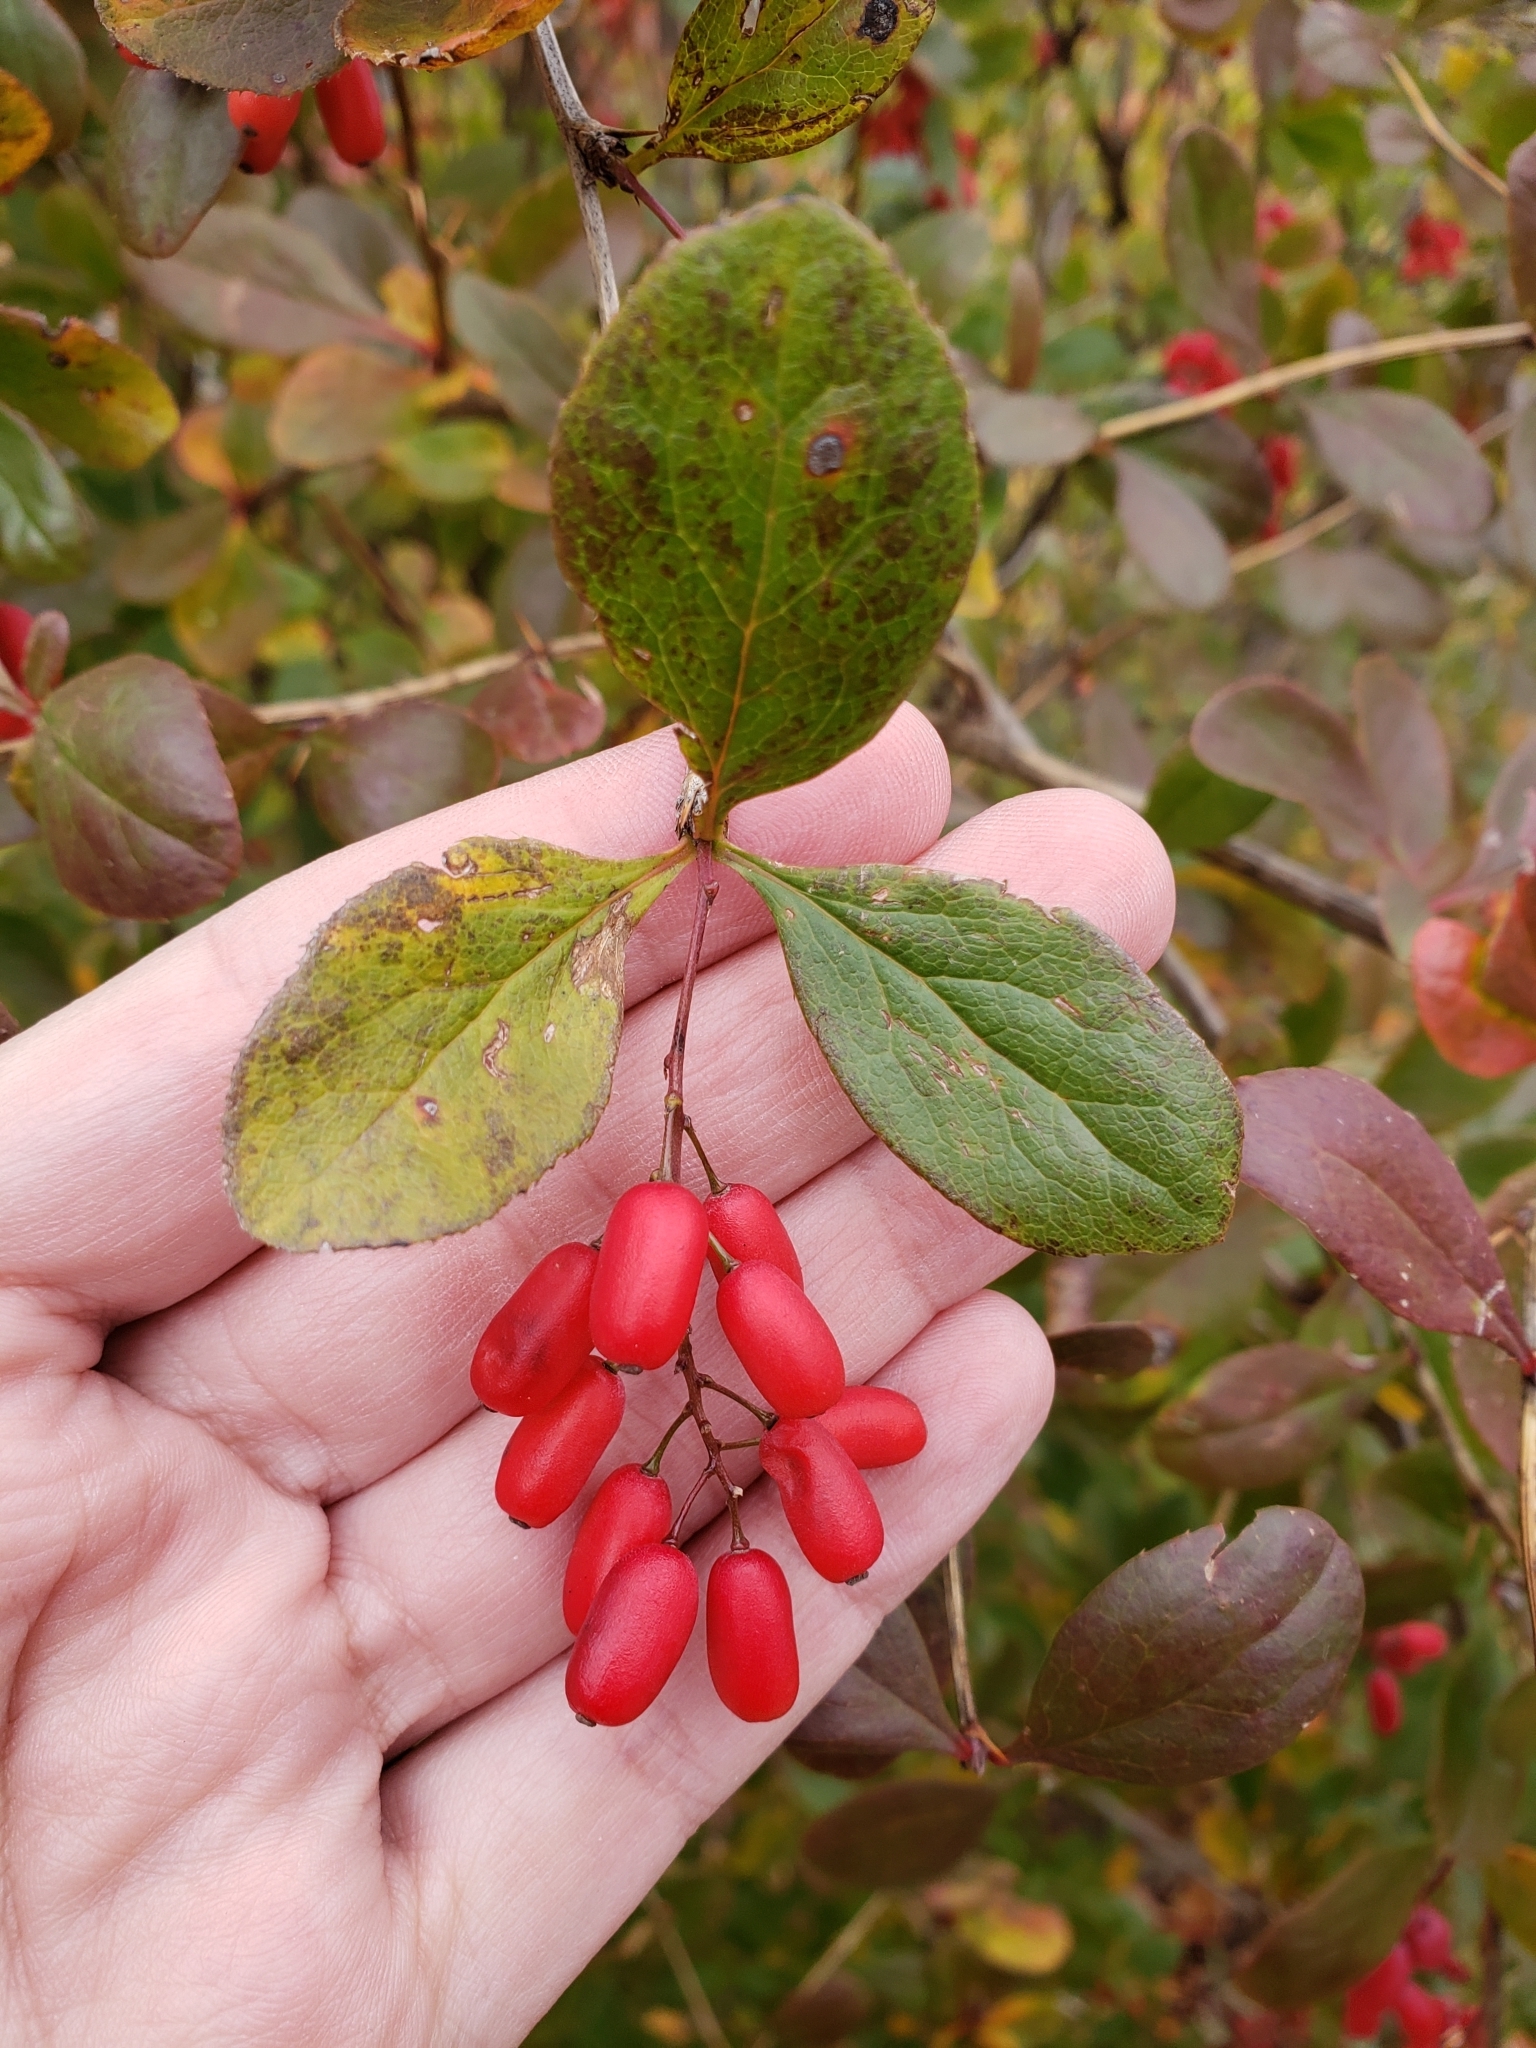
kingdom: Plantae
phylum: Tracheophyta
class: Magnoliopsida
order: Ranunculales
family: Berberidaceae
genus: Berberis
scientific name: Berberis vulgaris
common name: Barberry
